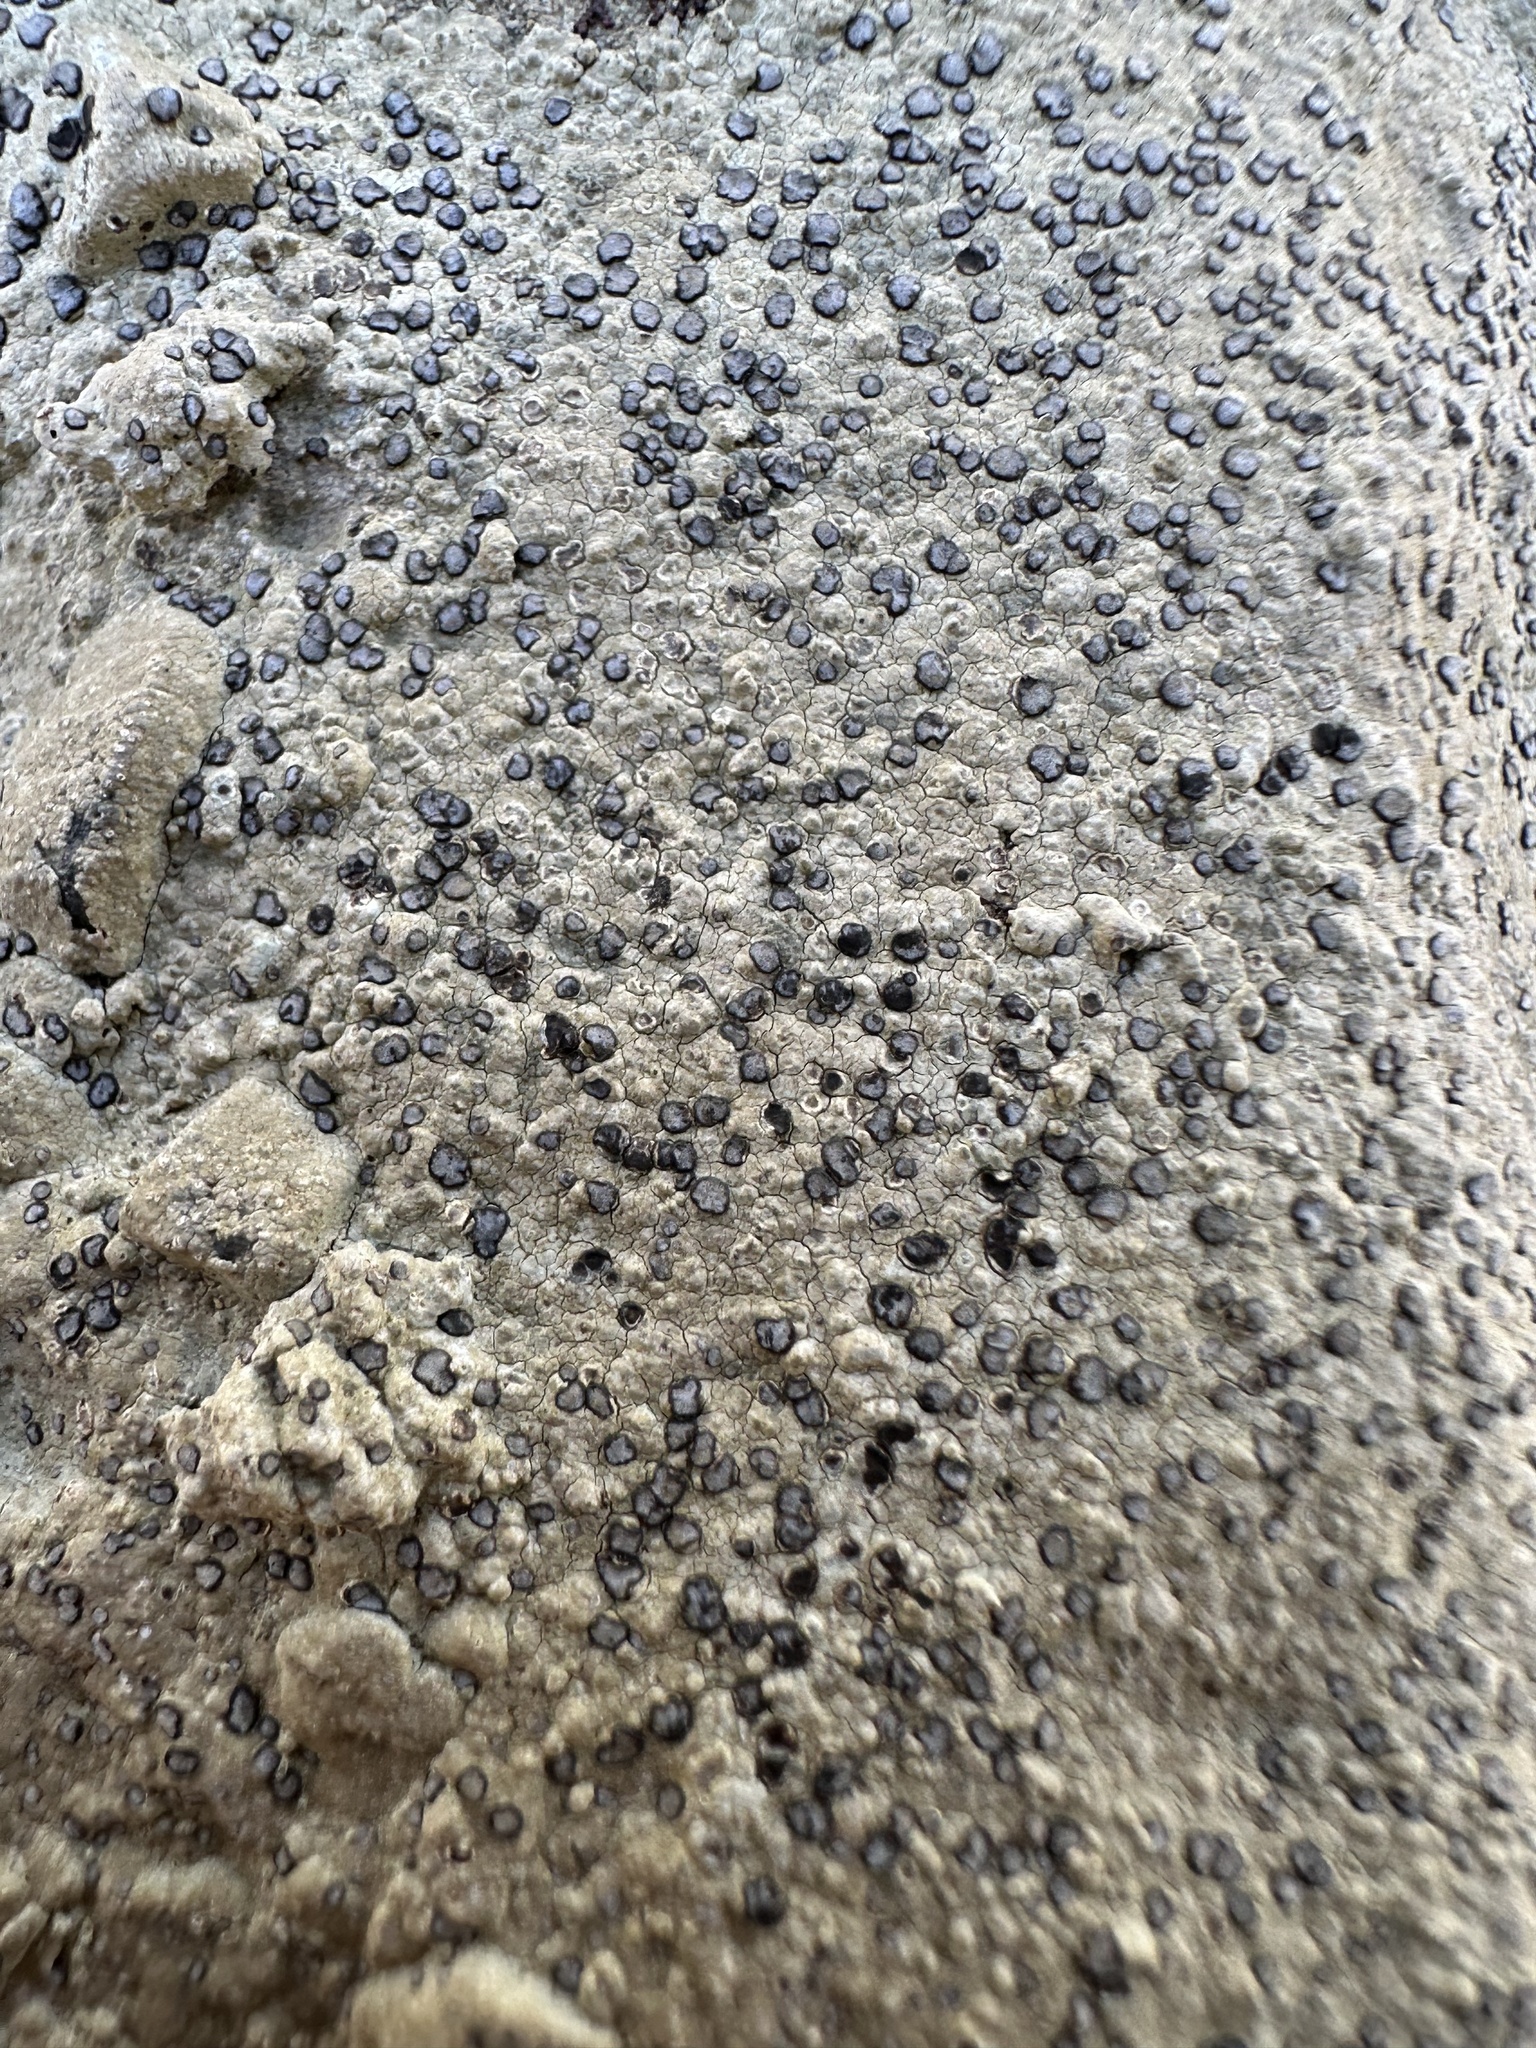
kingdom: Fungi
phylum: Ascomycota
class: Lecanoromycetes
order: Lecideales
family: Lecideaceae
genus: Porpidia
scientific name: Porpidia albocaerulescens
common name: Smokey-eyed boulder lichen
